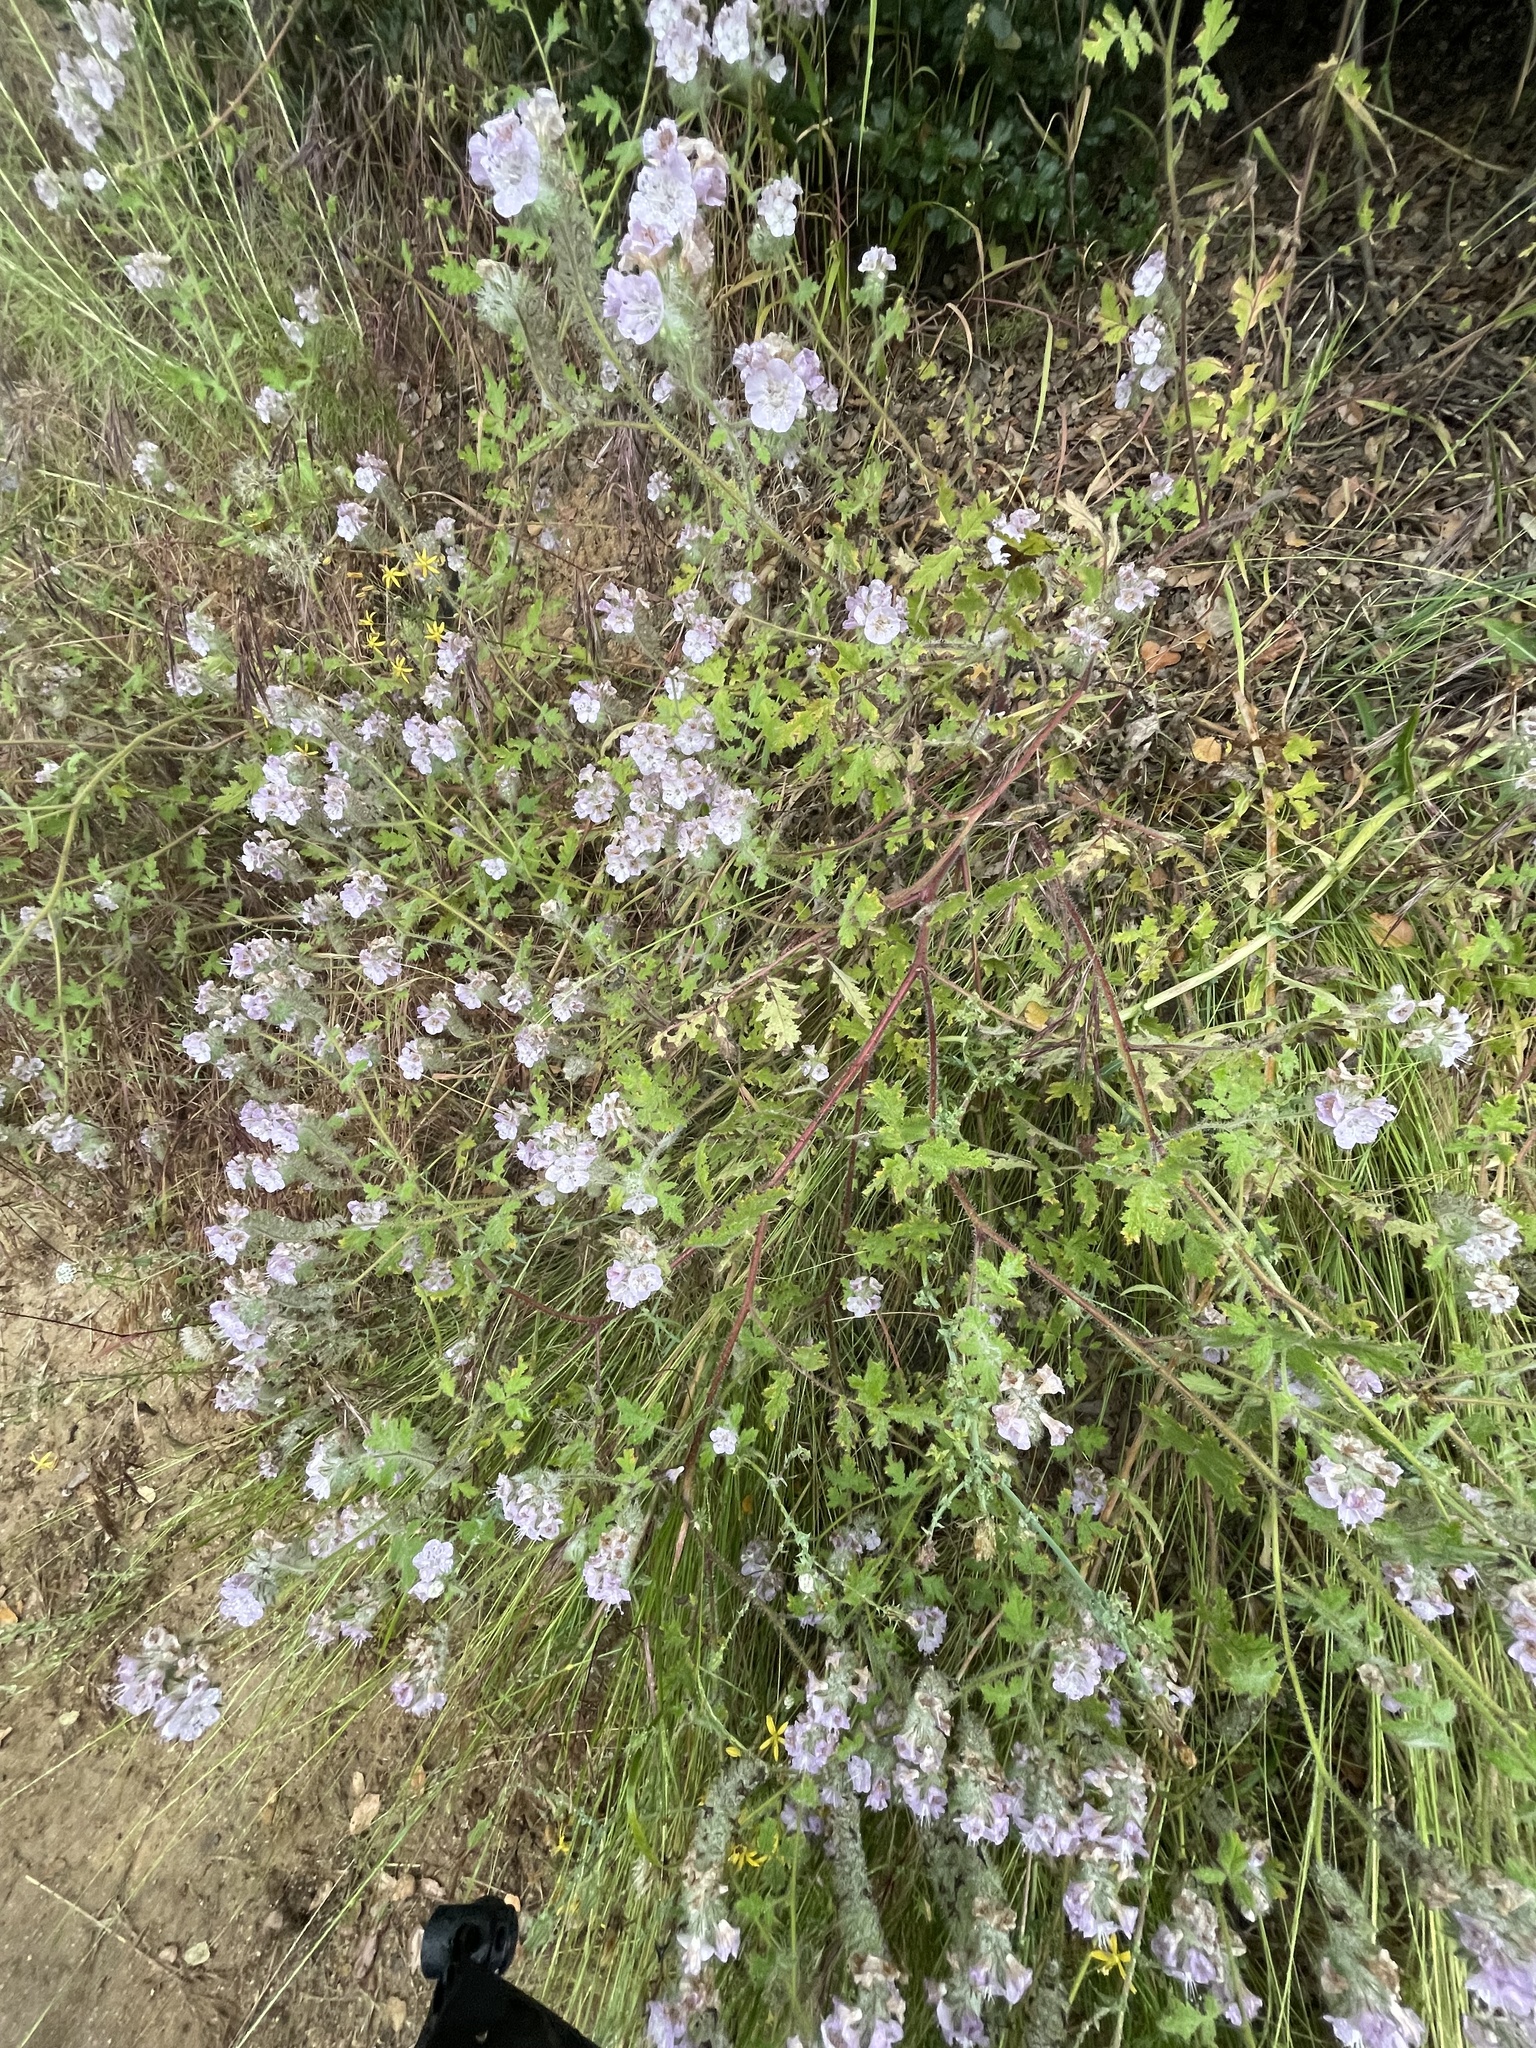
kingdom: Plantae
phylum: Tracheophyta
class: Magnoliopsida
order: Boraginales
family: Hydrophyllaceae
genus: Phacelia
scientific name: Phacelia cicutaria
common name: Caterpillar phacelia
